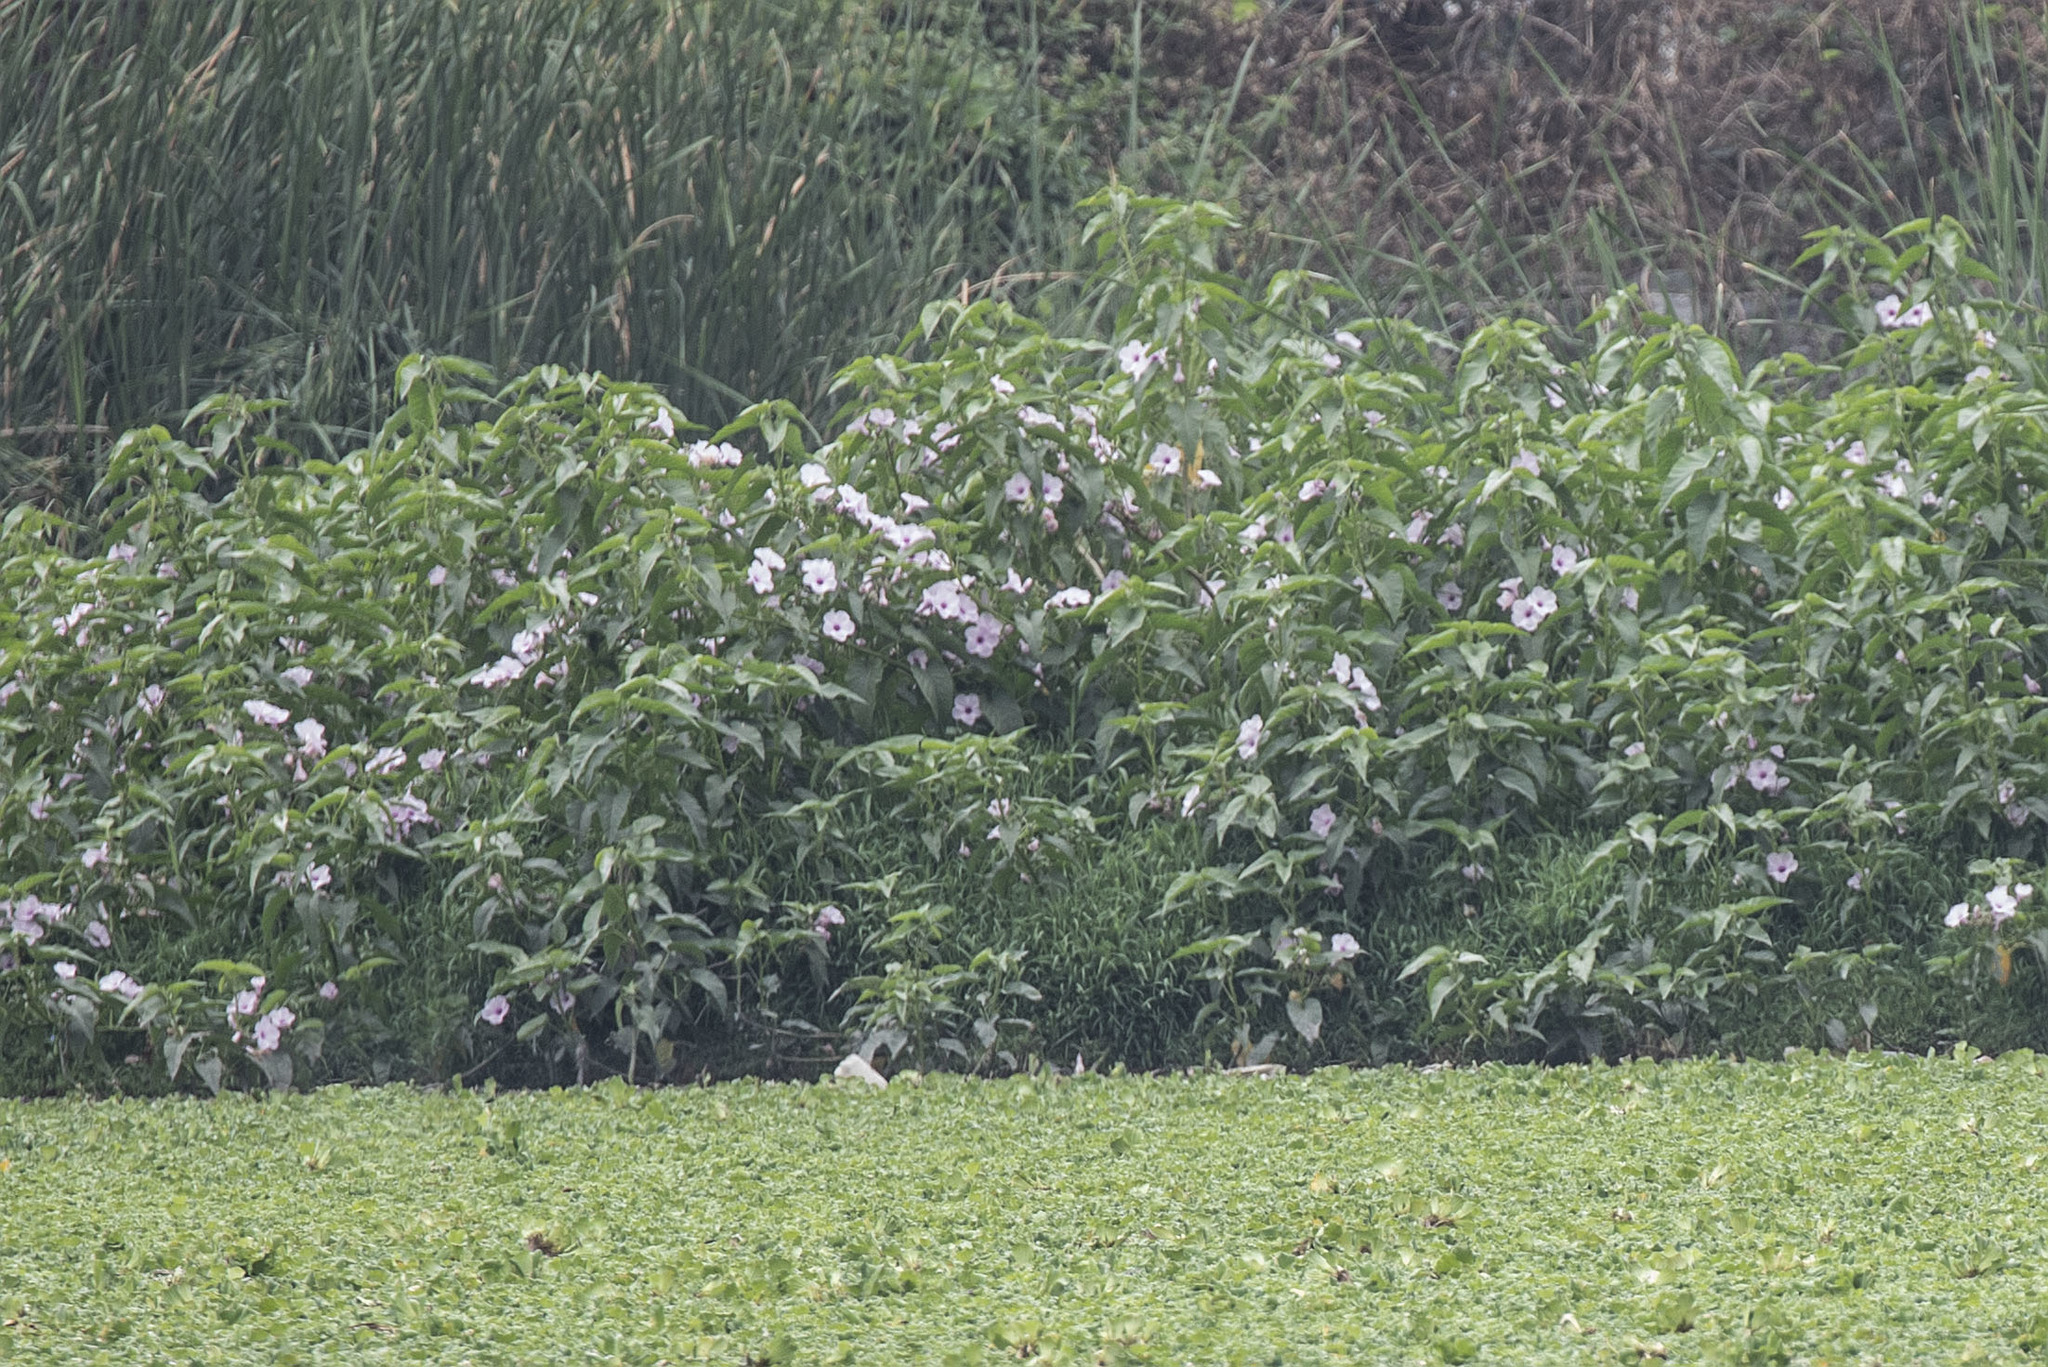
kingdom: Plantae
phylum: Tracheophyta
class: Magnoliopsida
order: Solanales
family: Convolvulaceae
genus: Ipomoea
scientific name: Ipomoea carnea
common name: Morning-glory
